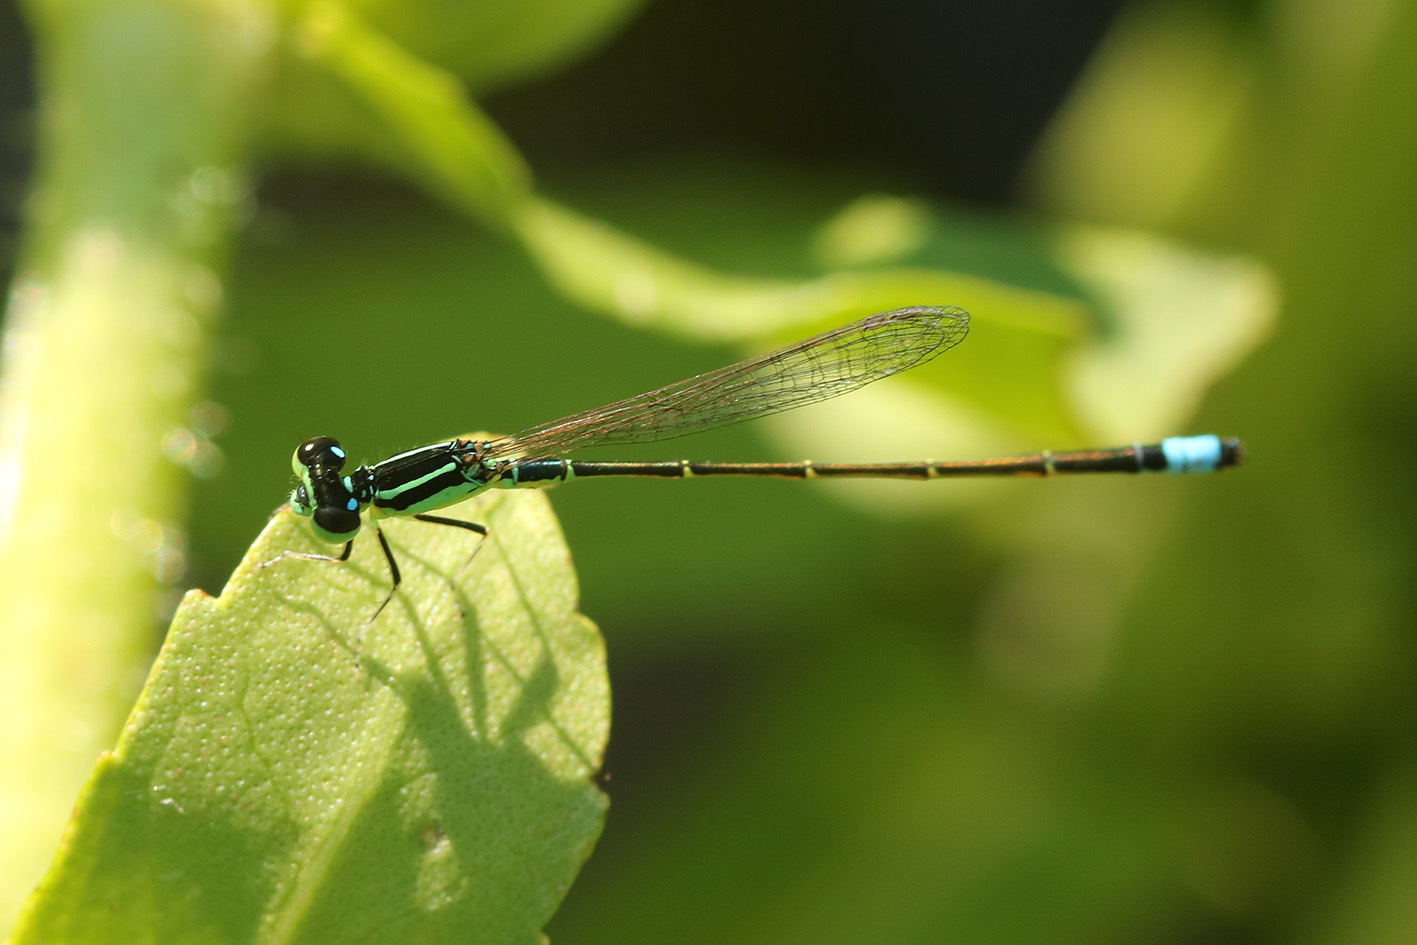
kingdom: Animalia
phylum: Arthropoda
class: Insecta
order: Odonata
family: Coenagrionidae
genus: Ischnura
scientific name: Ischnura capreolus
